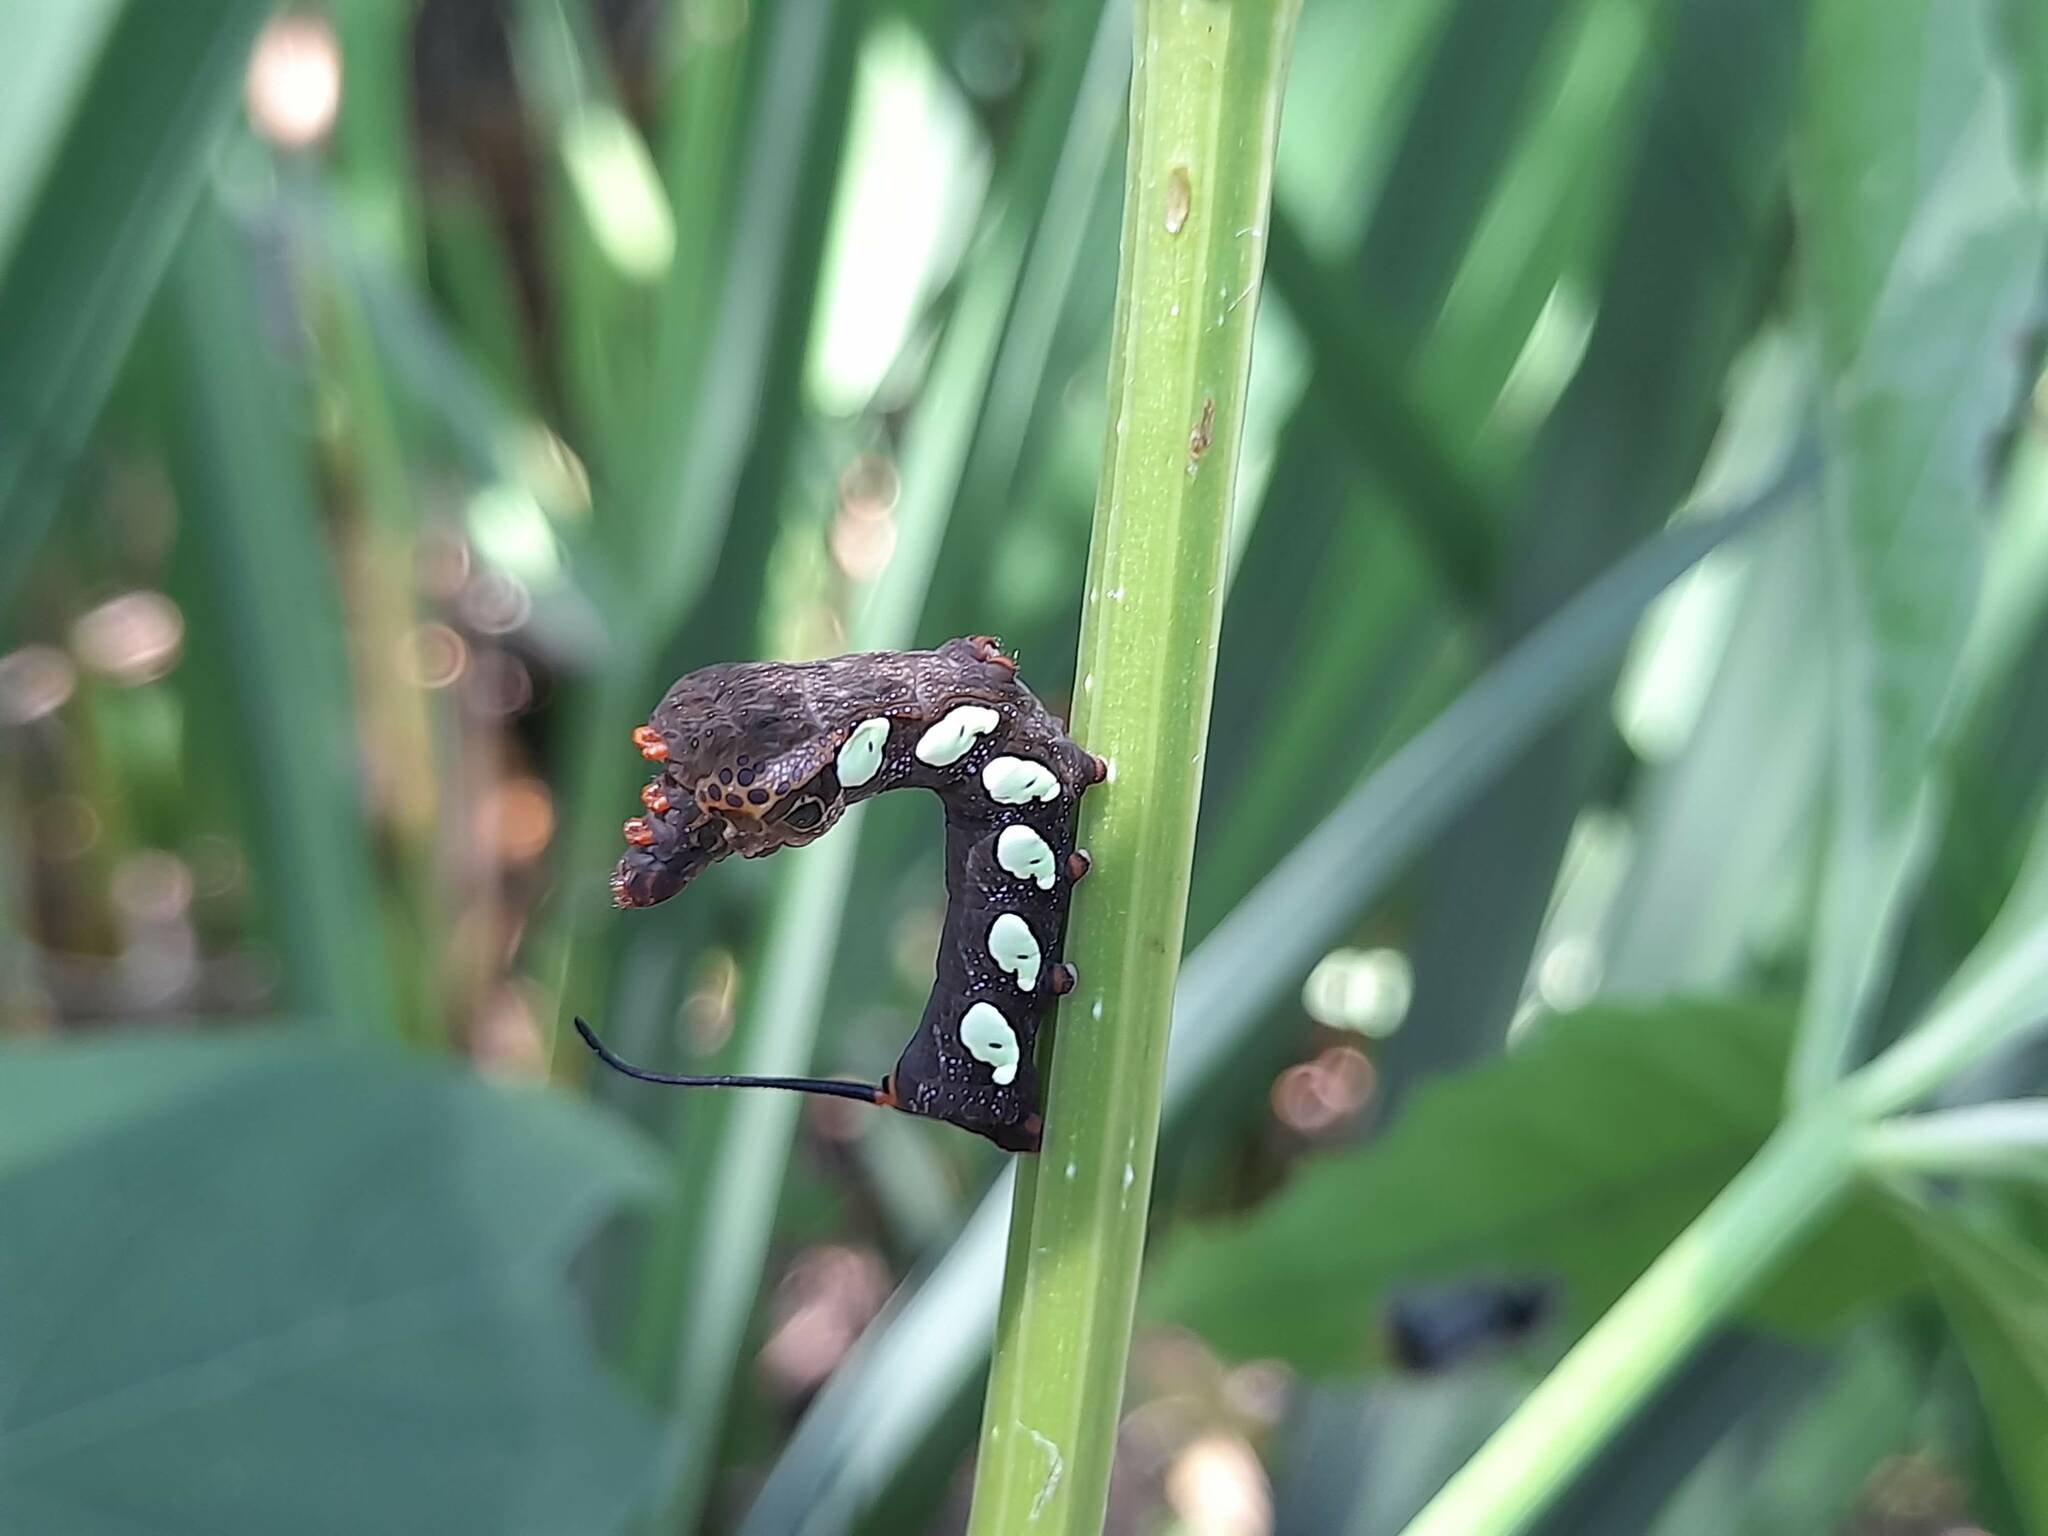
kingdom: Animalia
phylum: Arthropoda
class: Insecta
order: Lepidoptera
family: Sphingidae
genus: Eumorpha
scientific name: Eumorpha labruscae
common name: Gaudy sphinx
